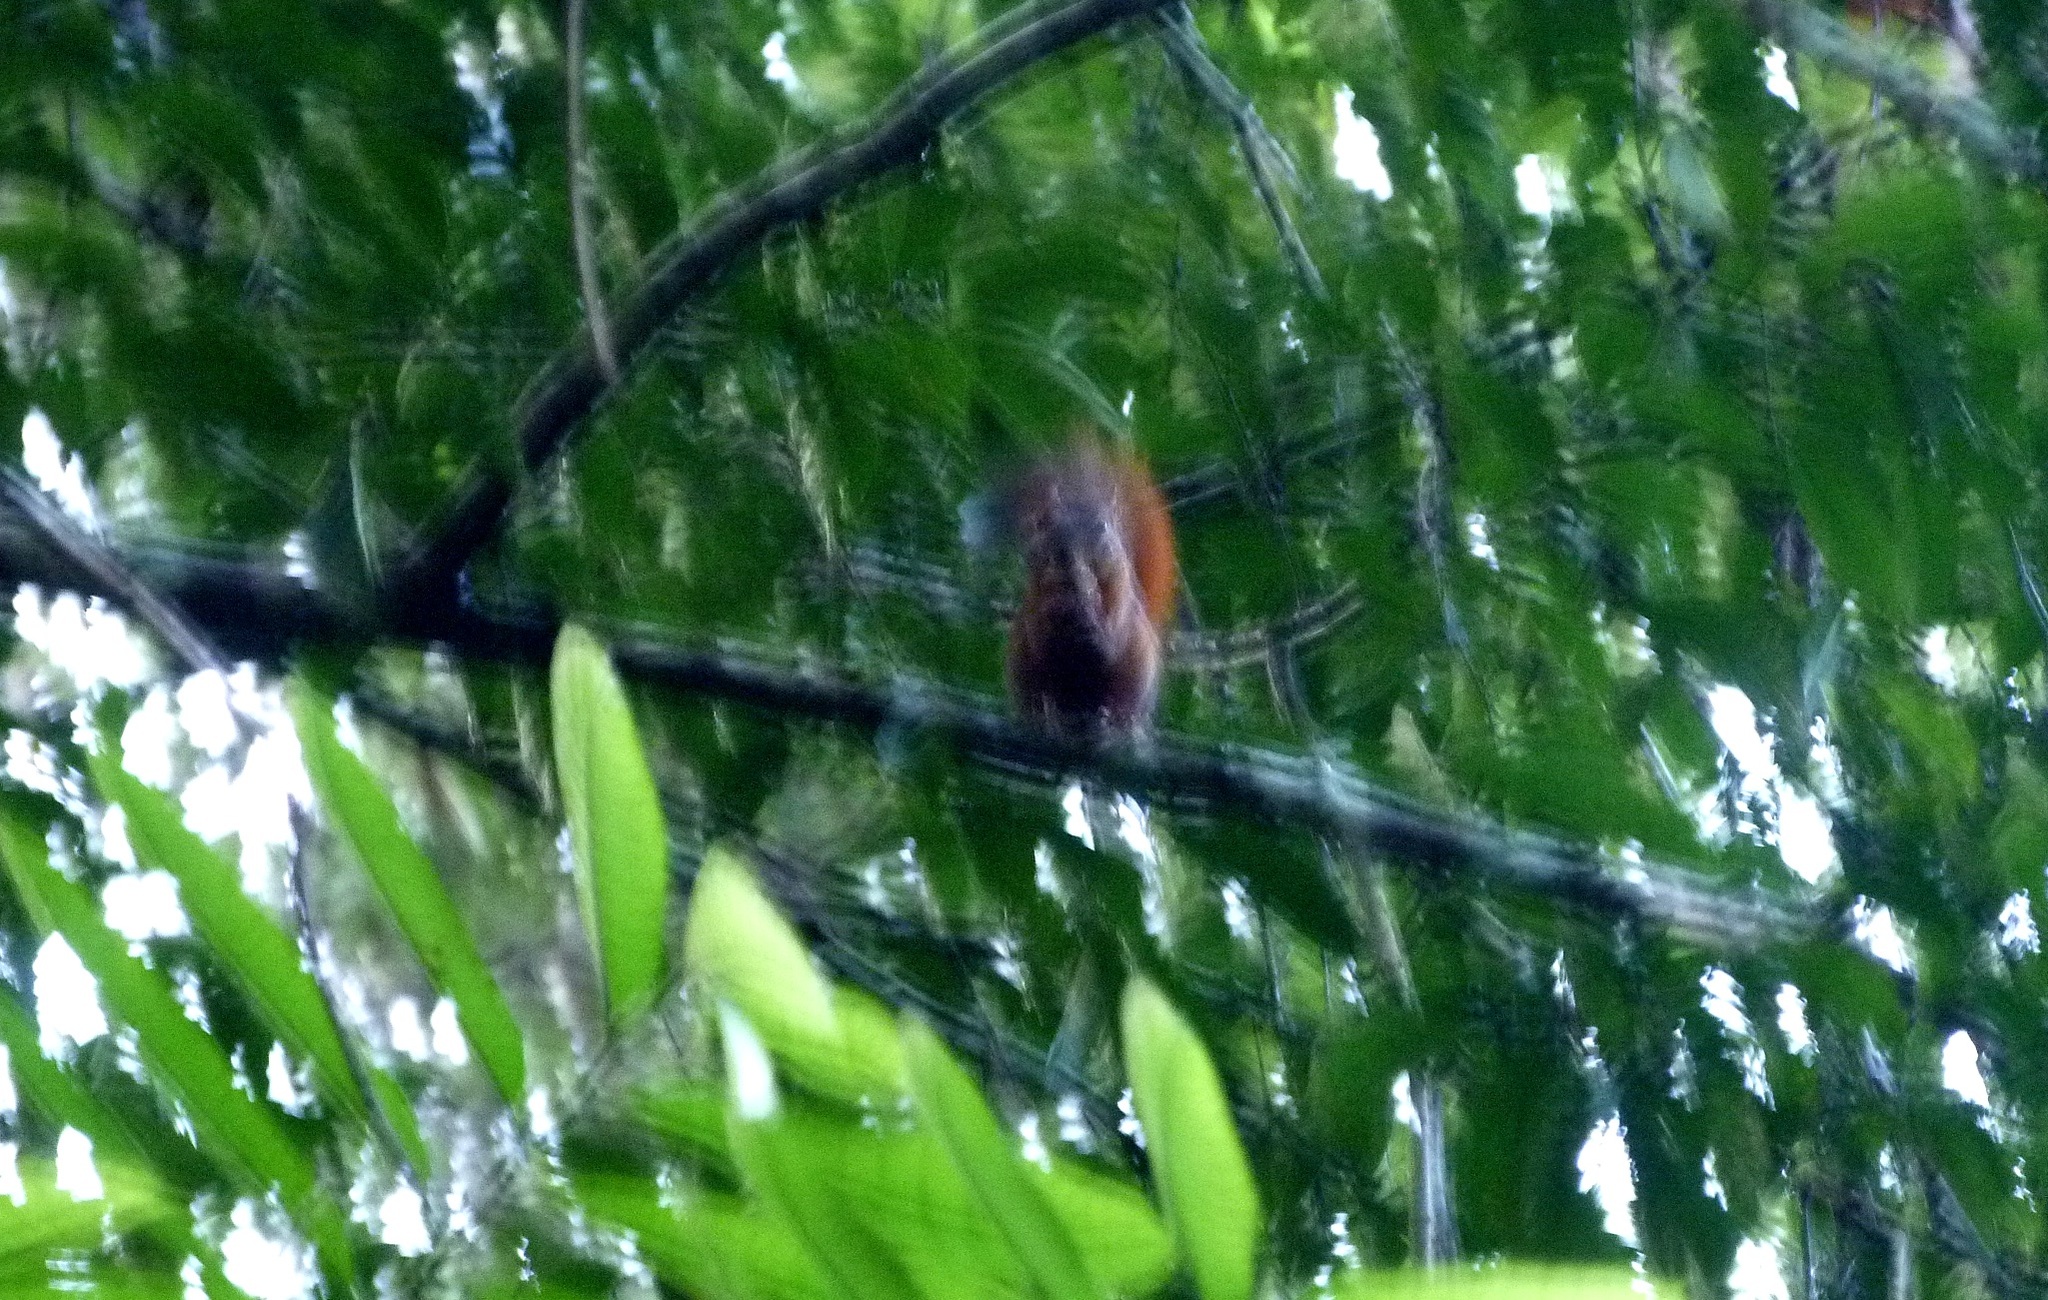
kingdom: Animalia
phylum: Chordata
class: Mammalia
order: Rodentia
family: Sciuridae
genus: Sciurus
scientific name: Sciurus granatensis
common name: Red-tailed squirrel
